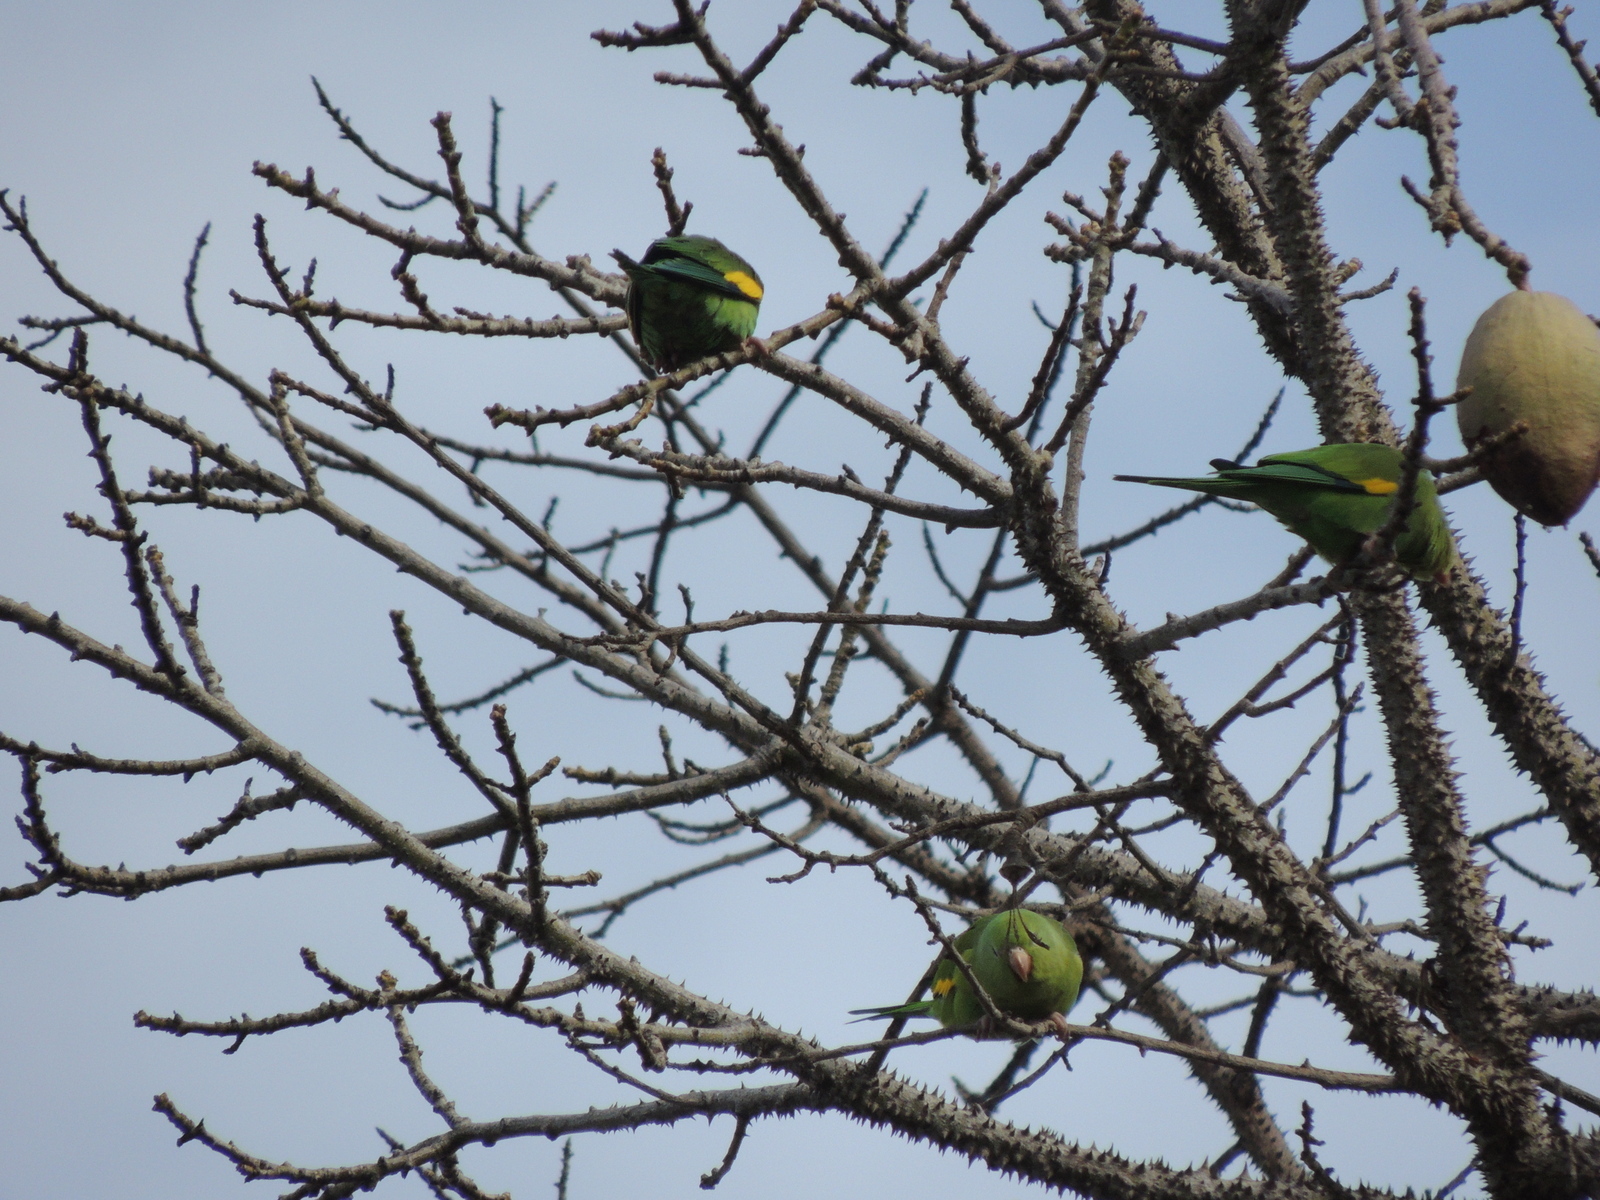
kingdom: Animalia
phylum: Chordata
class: Aves
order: Psittaciformes
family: Psittacidae
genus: Brotogeris
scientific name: Brotogeris chiriri
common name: Yellow-chevroned parakeet
